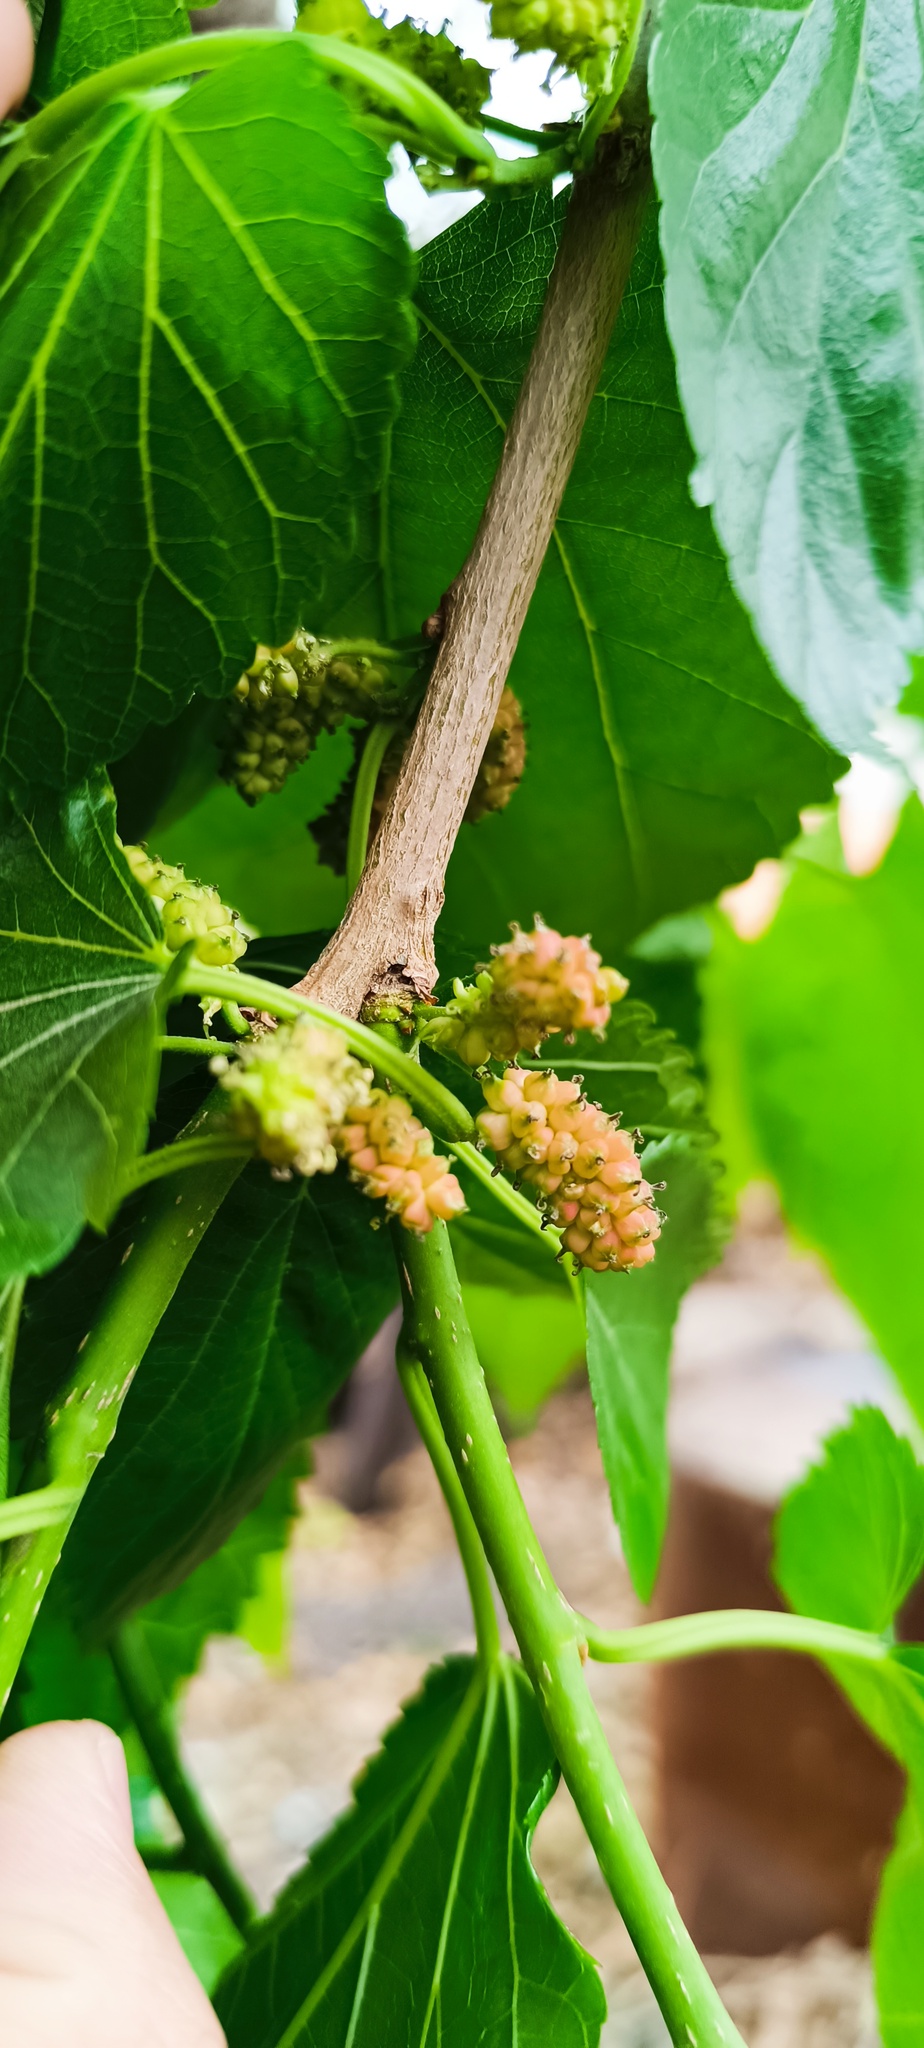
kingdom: Plantae
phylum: Tracheophyta
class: Magnoliopsida
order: Rosales
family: Moraceae
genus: Morus
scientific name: Morus celtidifolia
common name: Texas mulberry
